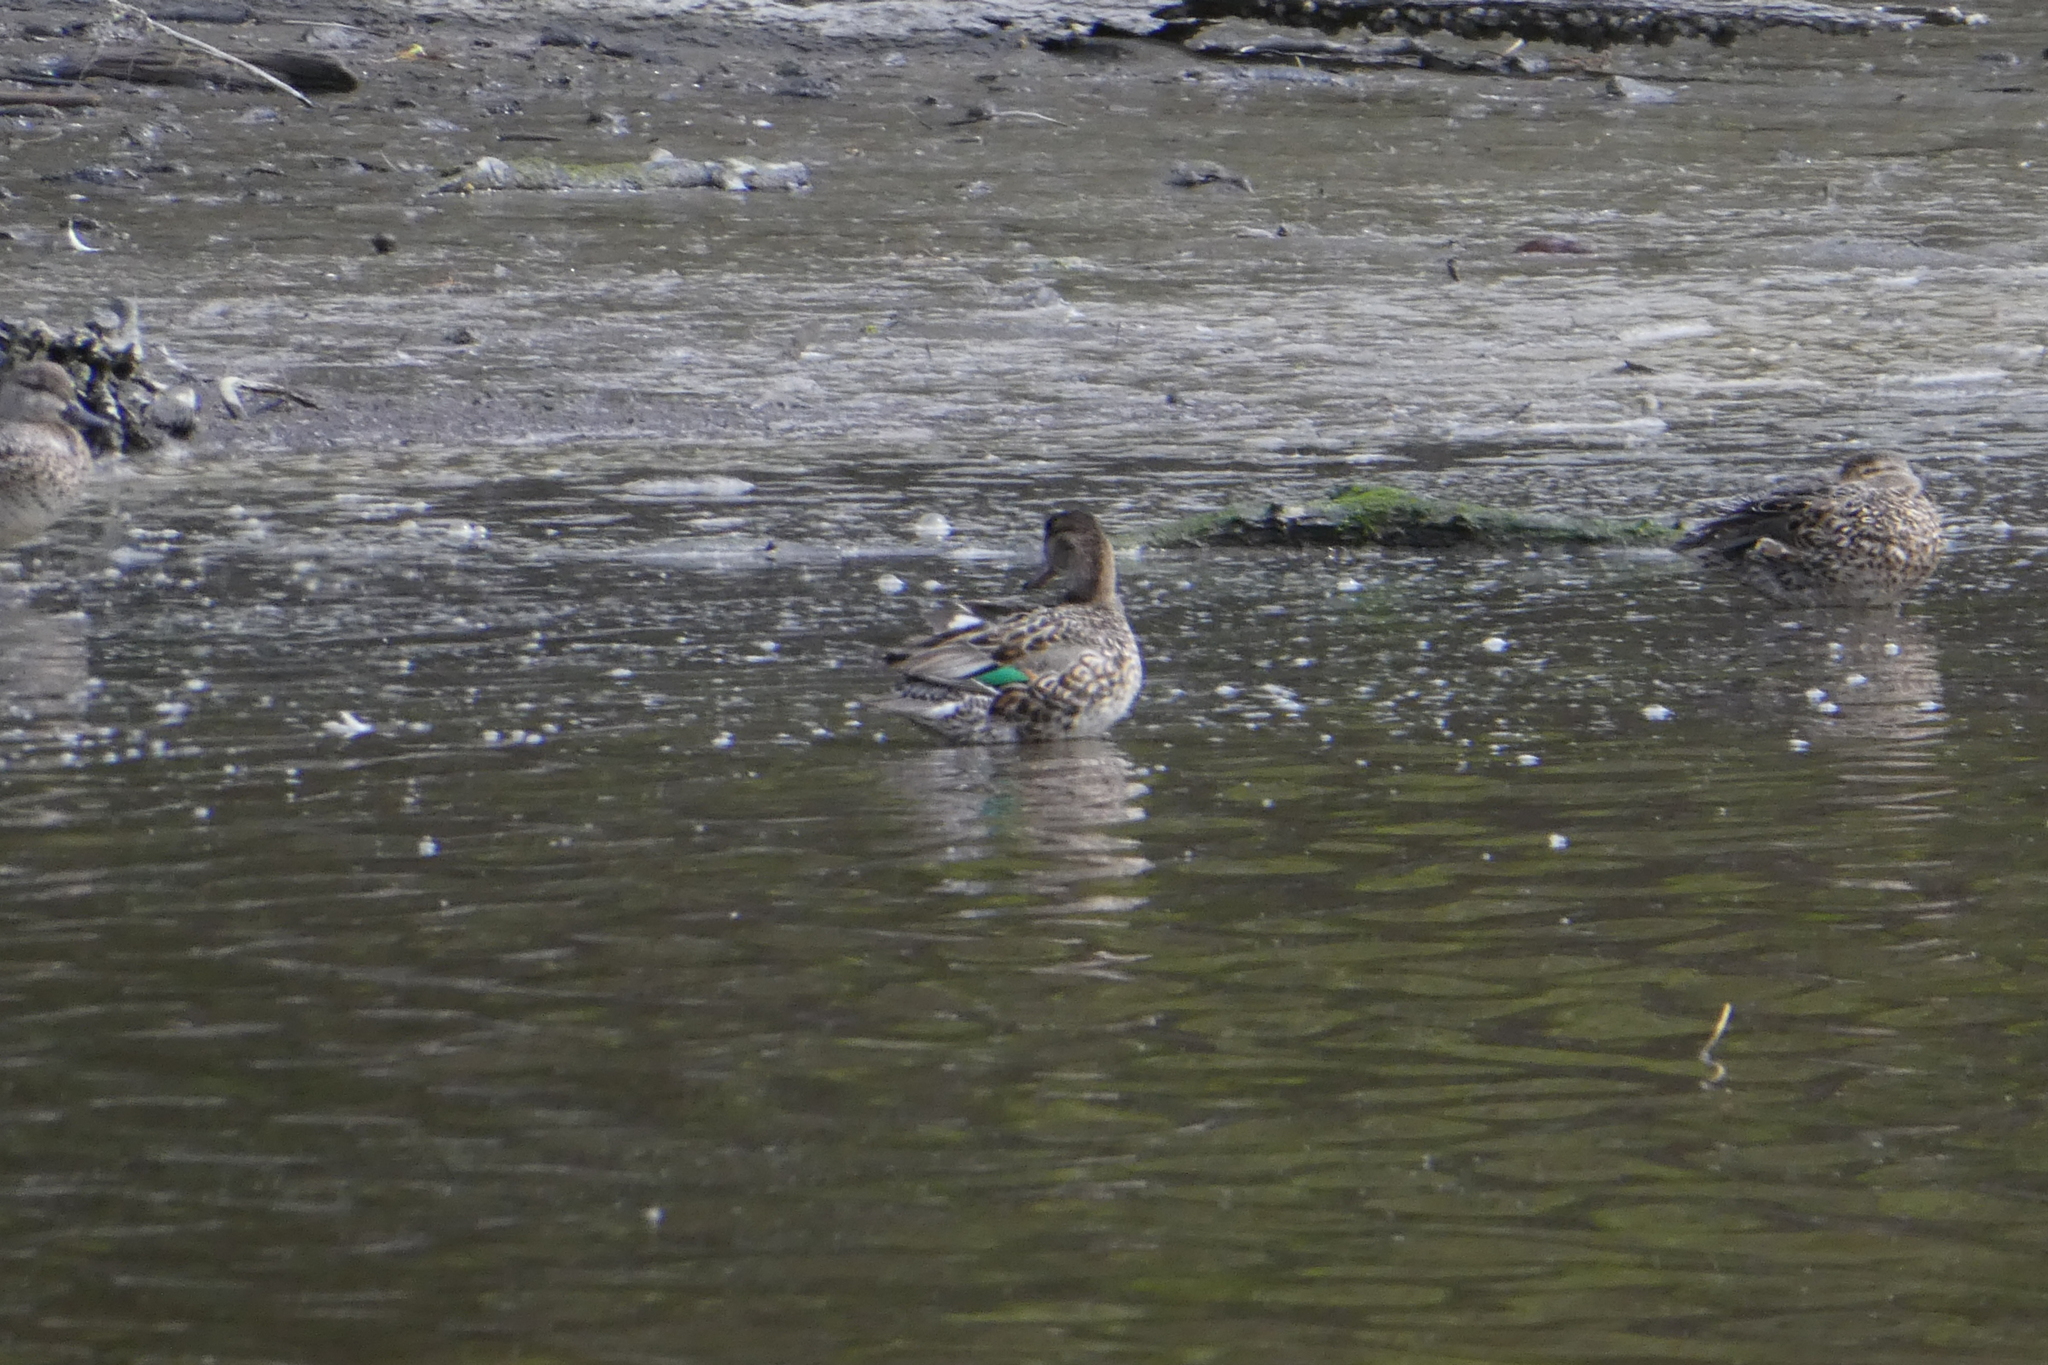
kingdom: Animalia
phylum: Chordata
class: Aves
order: Anseriformes
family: Anatidae
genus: Anas
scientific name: Anas crecca
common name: Eurasian teal
